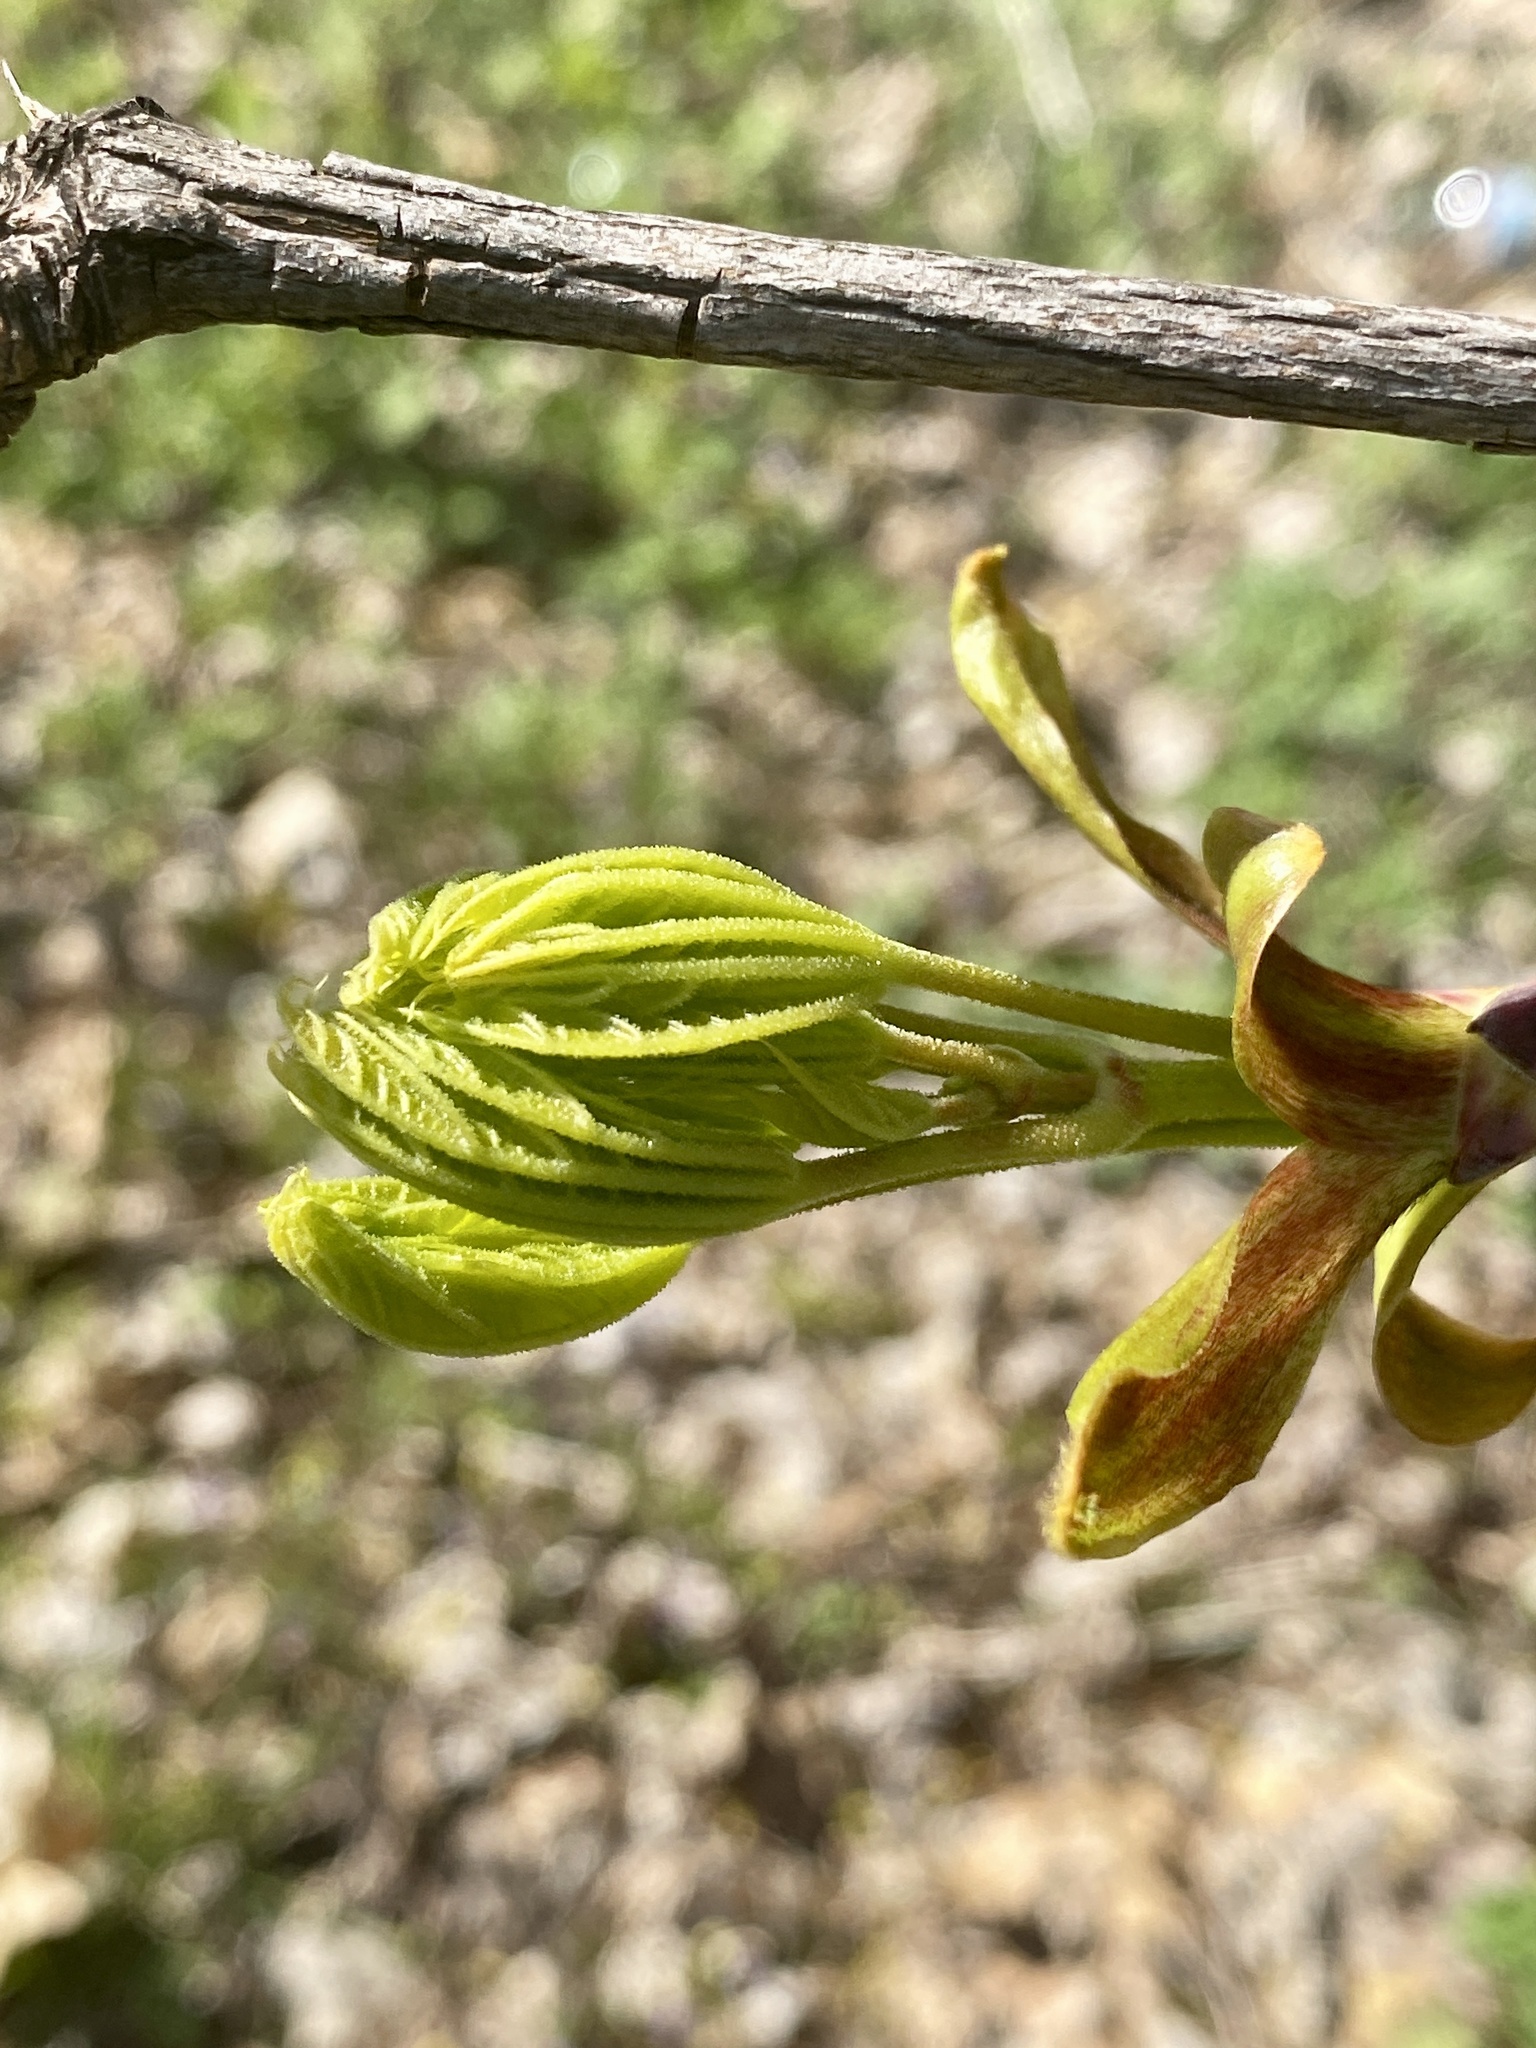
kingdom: Plantae
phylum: Tracheophyta
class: Magnoliopsida
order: Sapindales
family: Sapindaceae
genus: Acer
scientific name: Acer platanoides
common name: Norway maple
